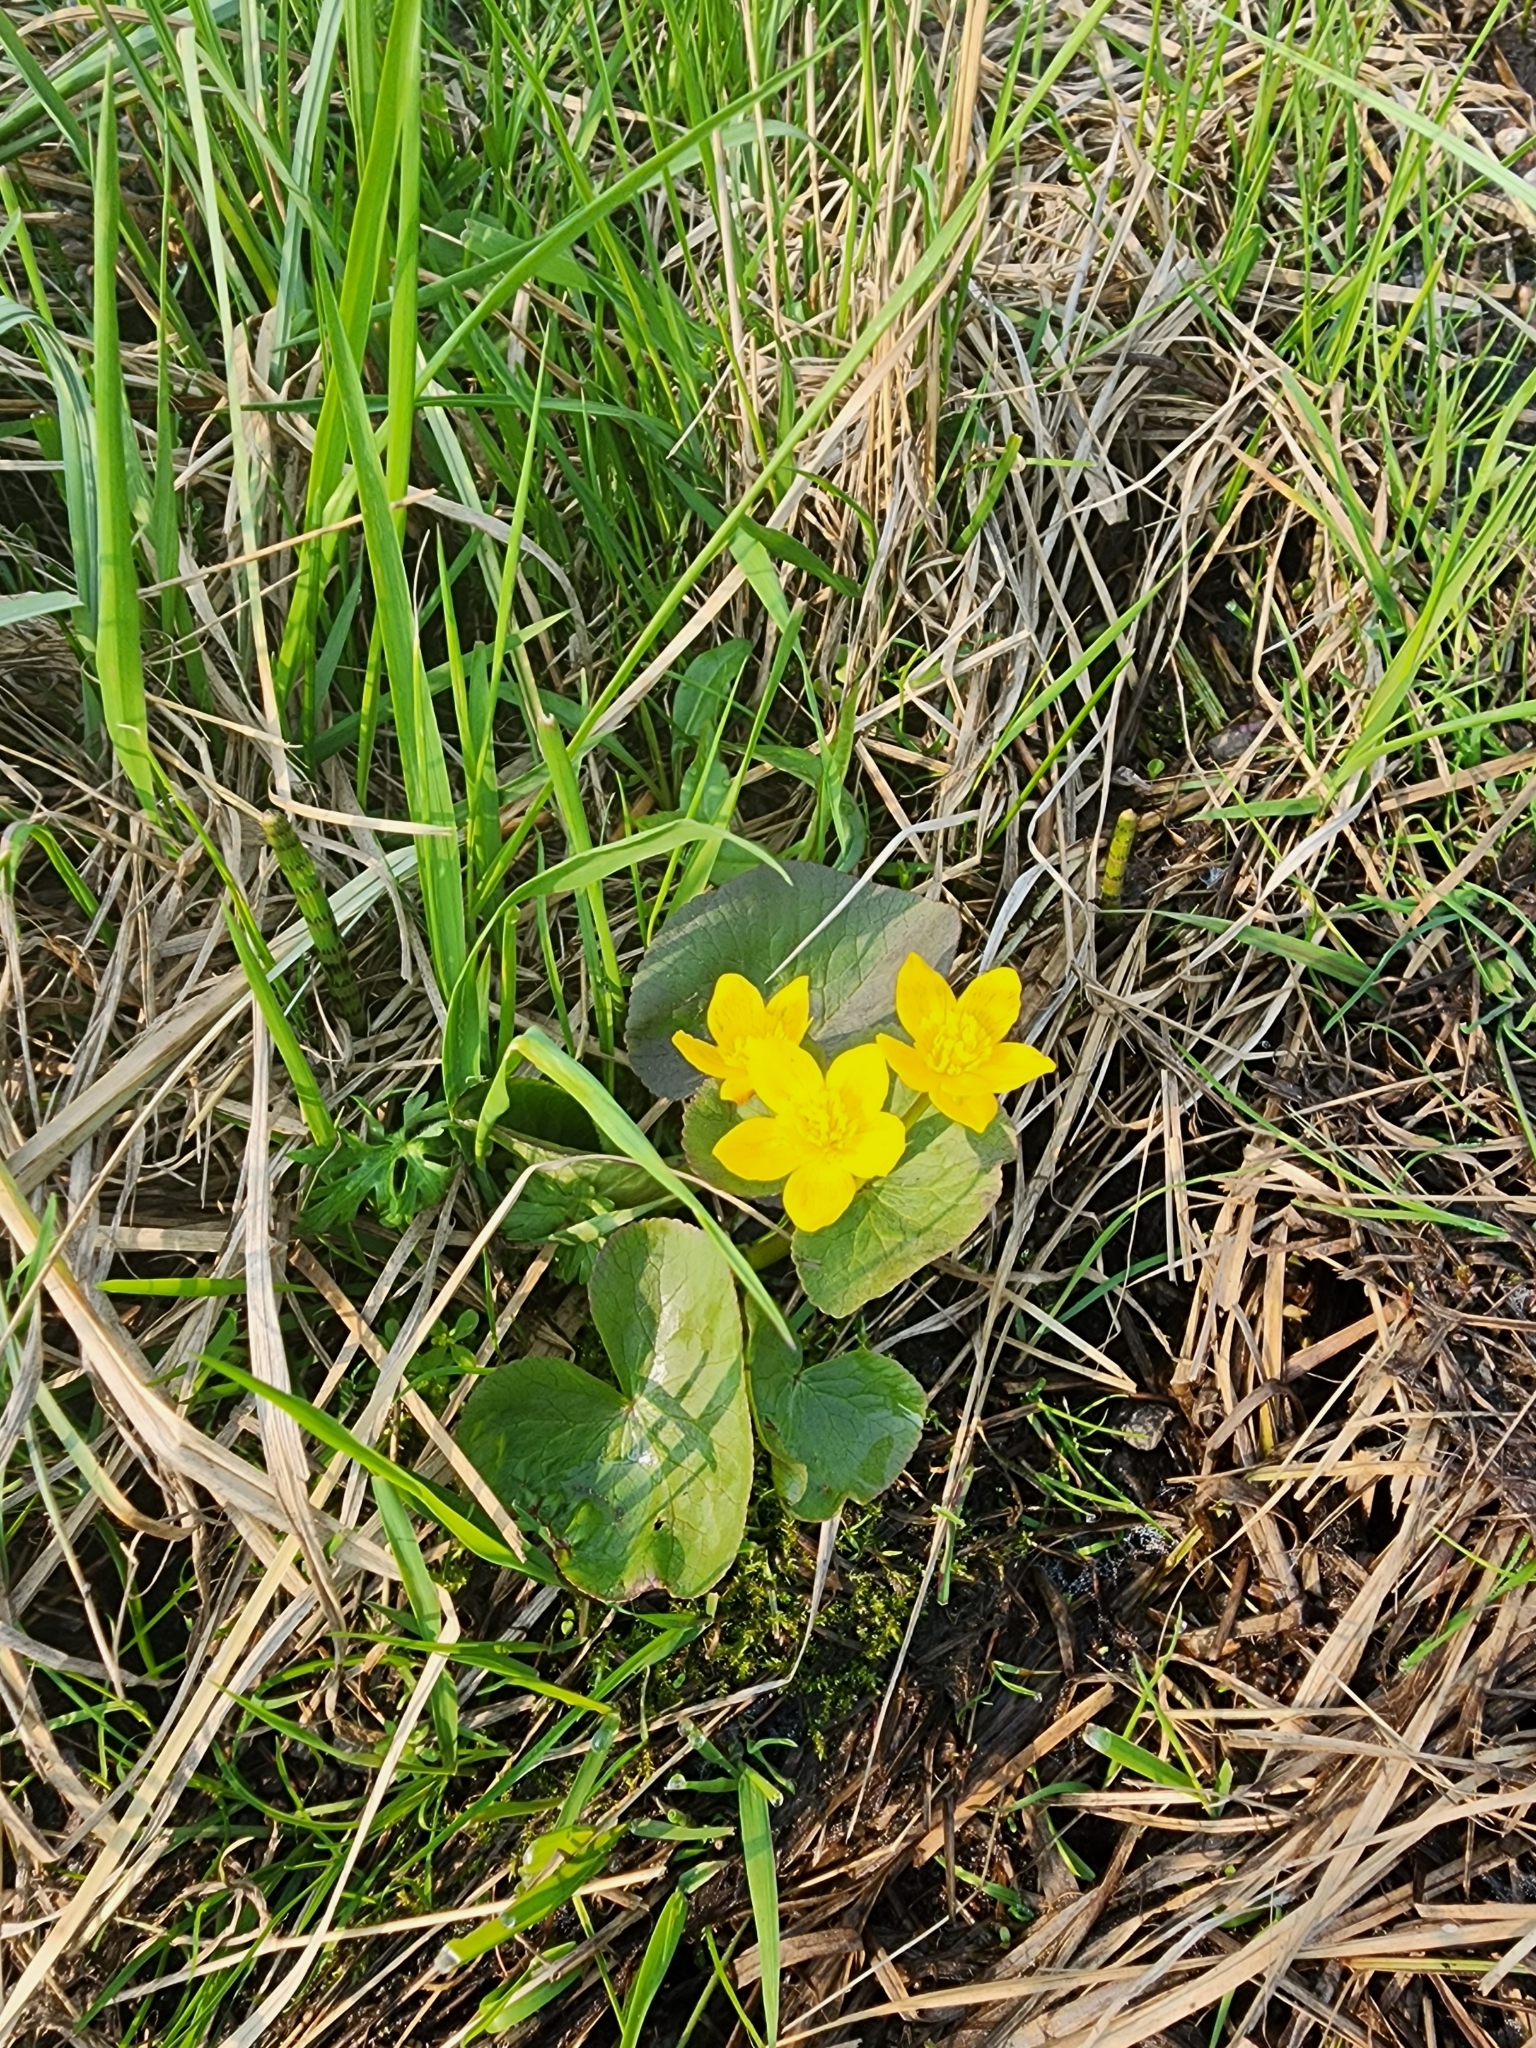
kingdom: Plantae
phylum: Tracheophyta
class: Magnoliopsida
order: Ranunculales
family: Ranunculaceae
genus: Caltha
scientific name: Caltha palustris
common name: Marsh marigold
